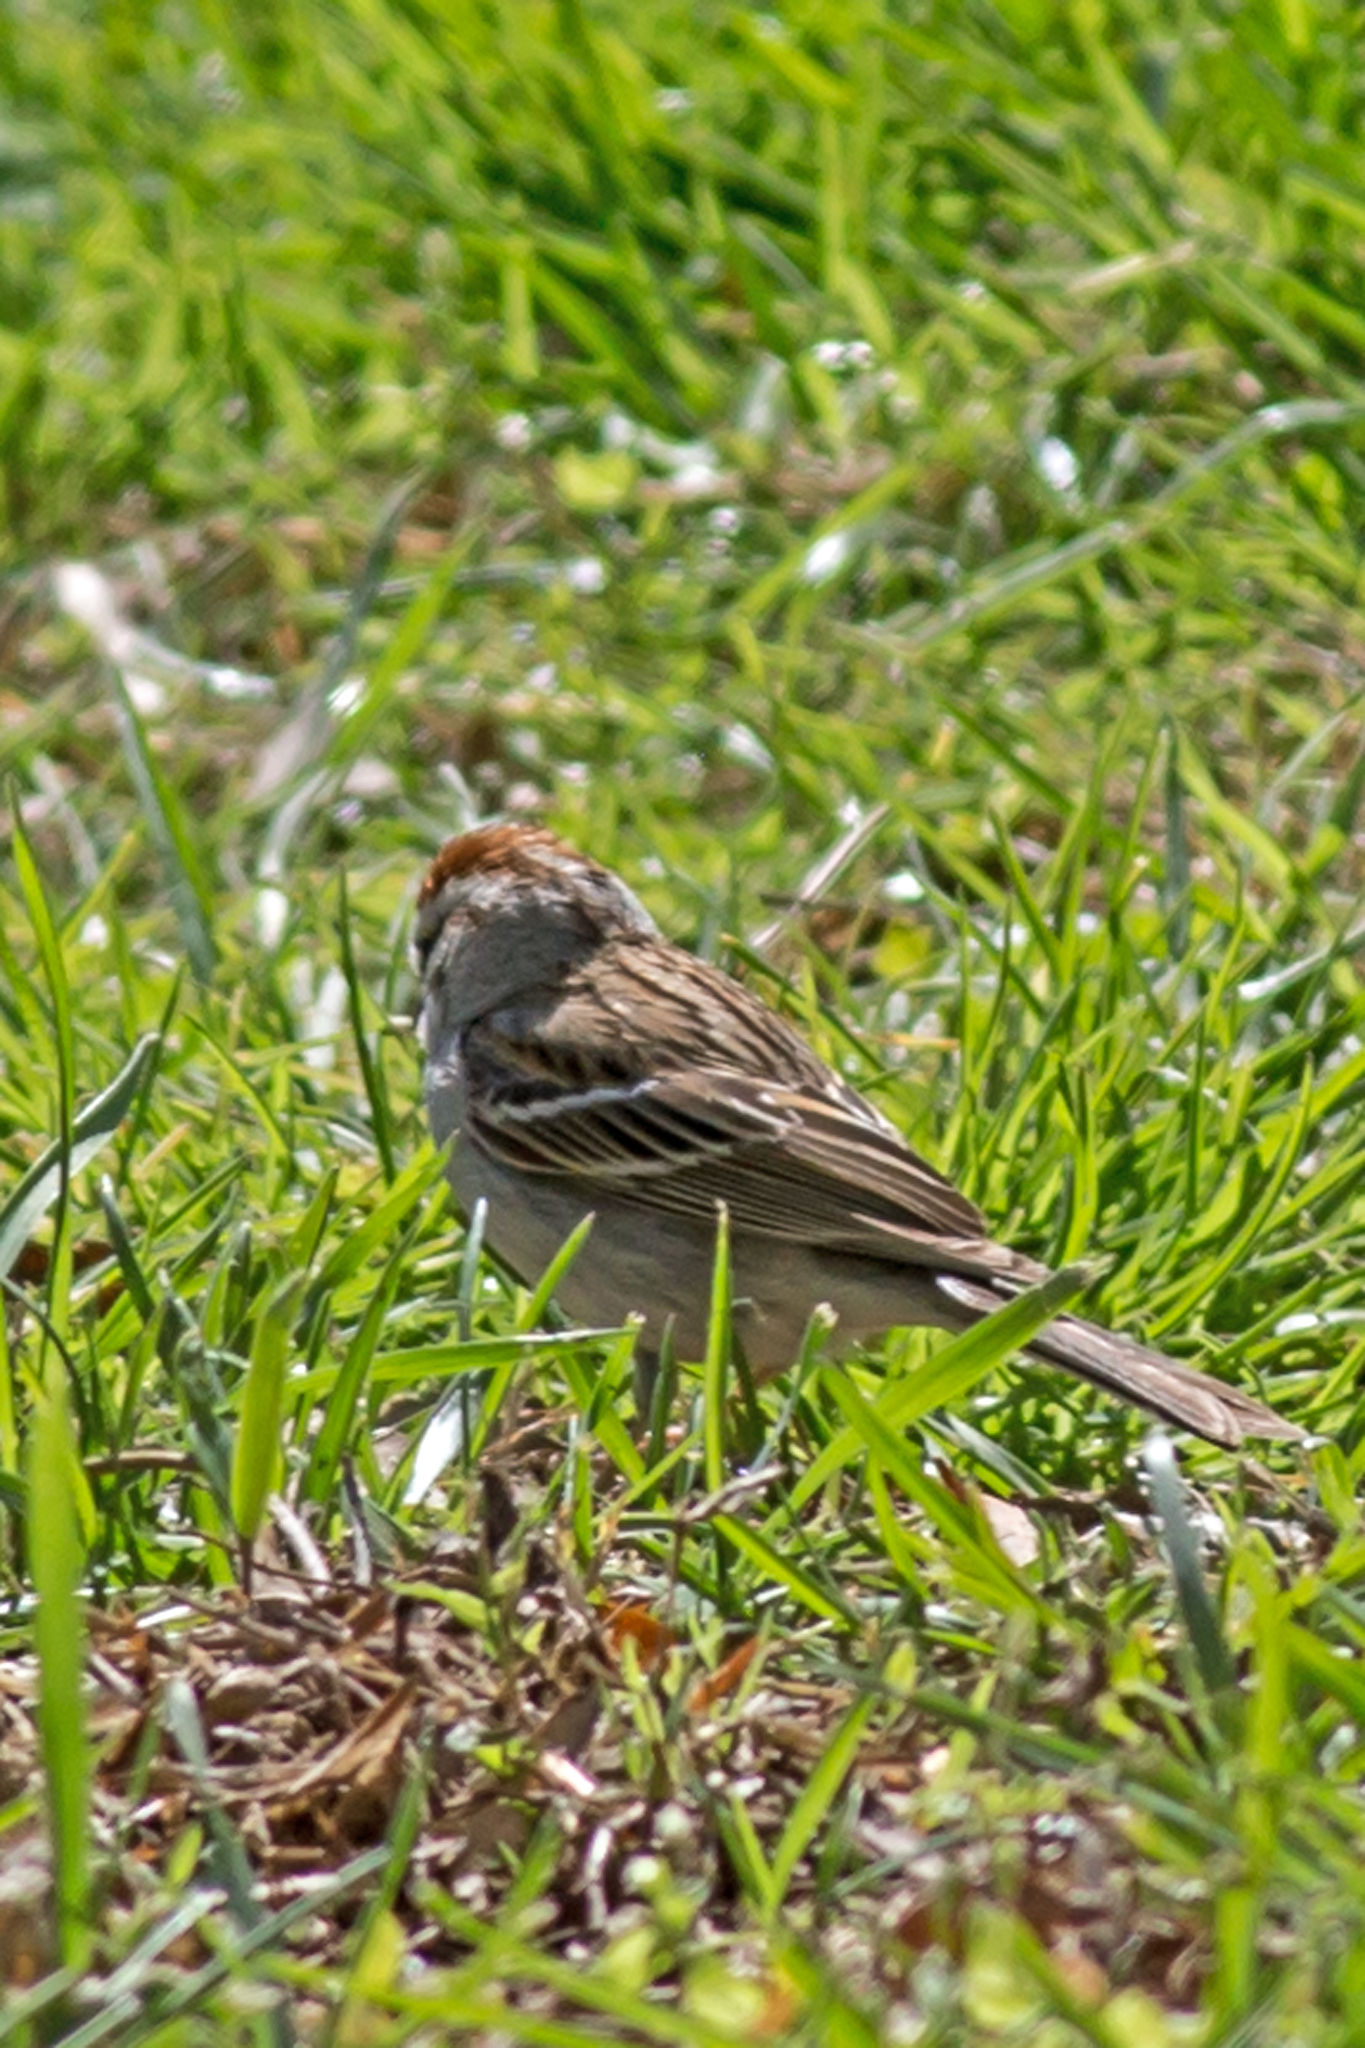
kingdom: Animalia
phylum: Chordata
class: Aves
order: Passeriformes
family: Passerellidae
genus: Spizella
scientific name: Spizella passerina
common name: Chipping sparrow
